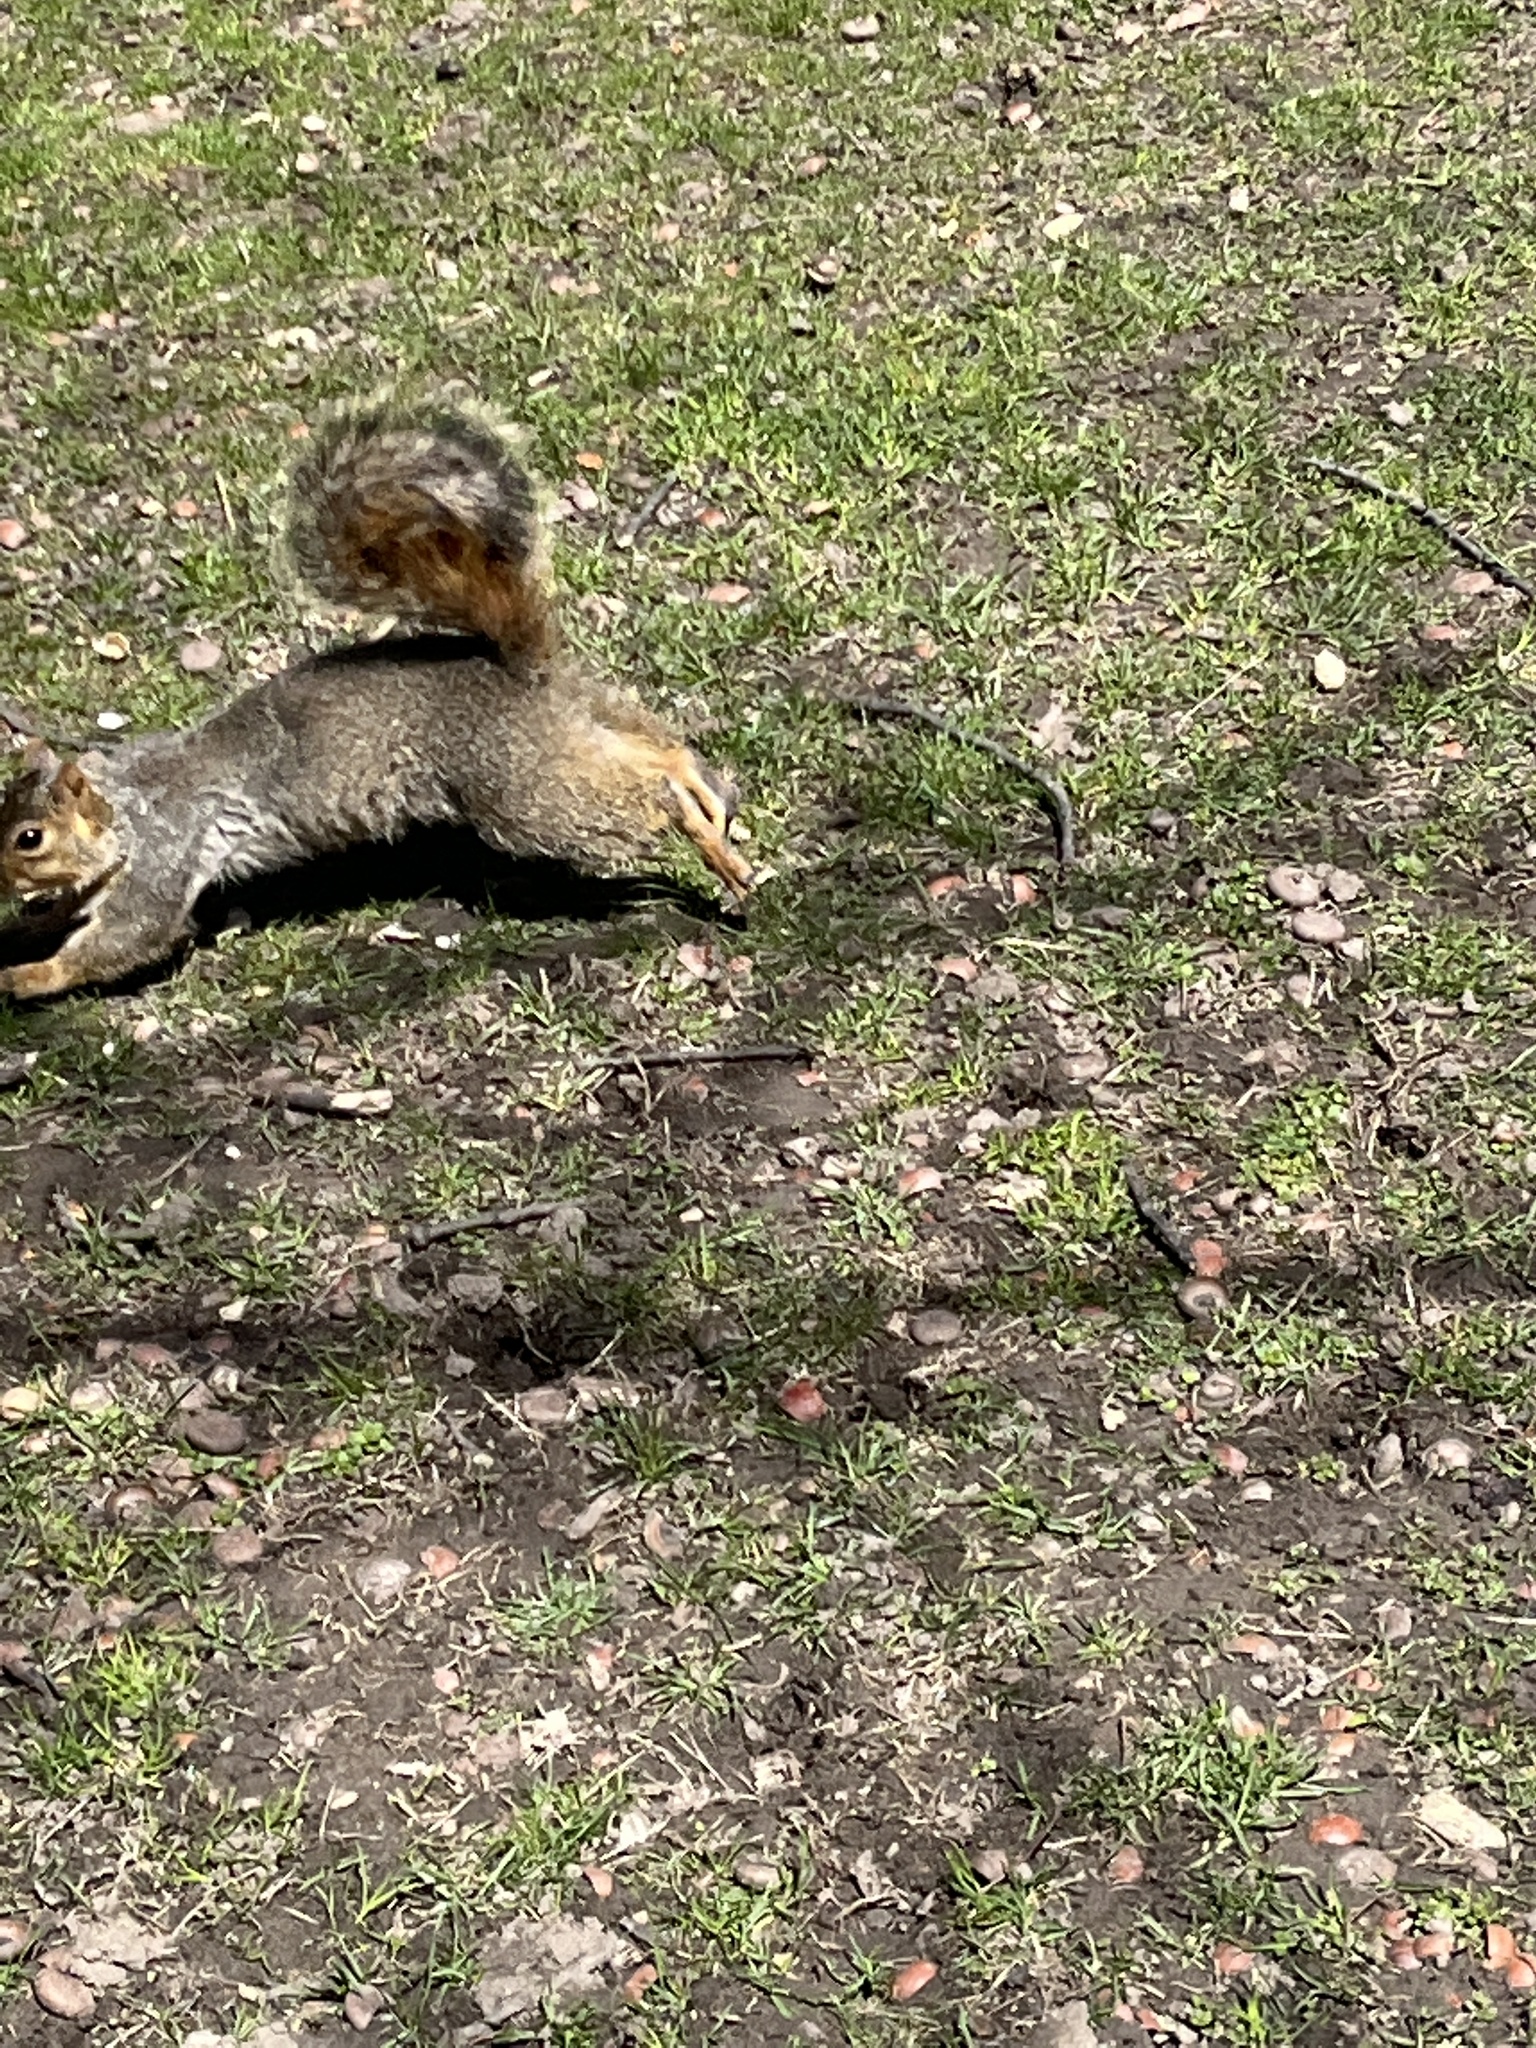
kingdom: Animalia
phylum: Chordata
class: Mammalia
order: Rodentia
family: Sciuridae
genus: Sciurus
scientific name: Sciurus niger
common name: Fox squirrel
